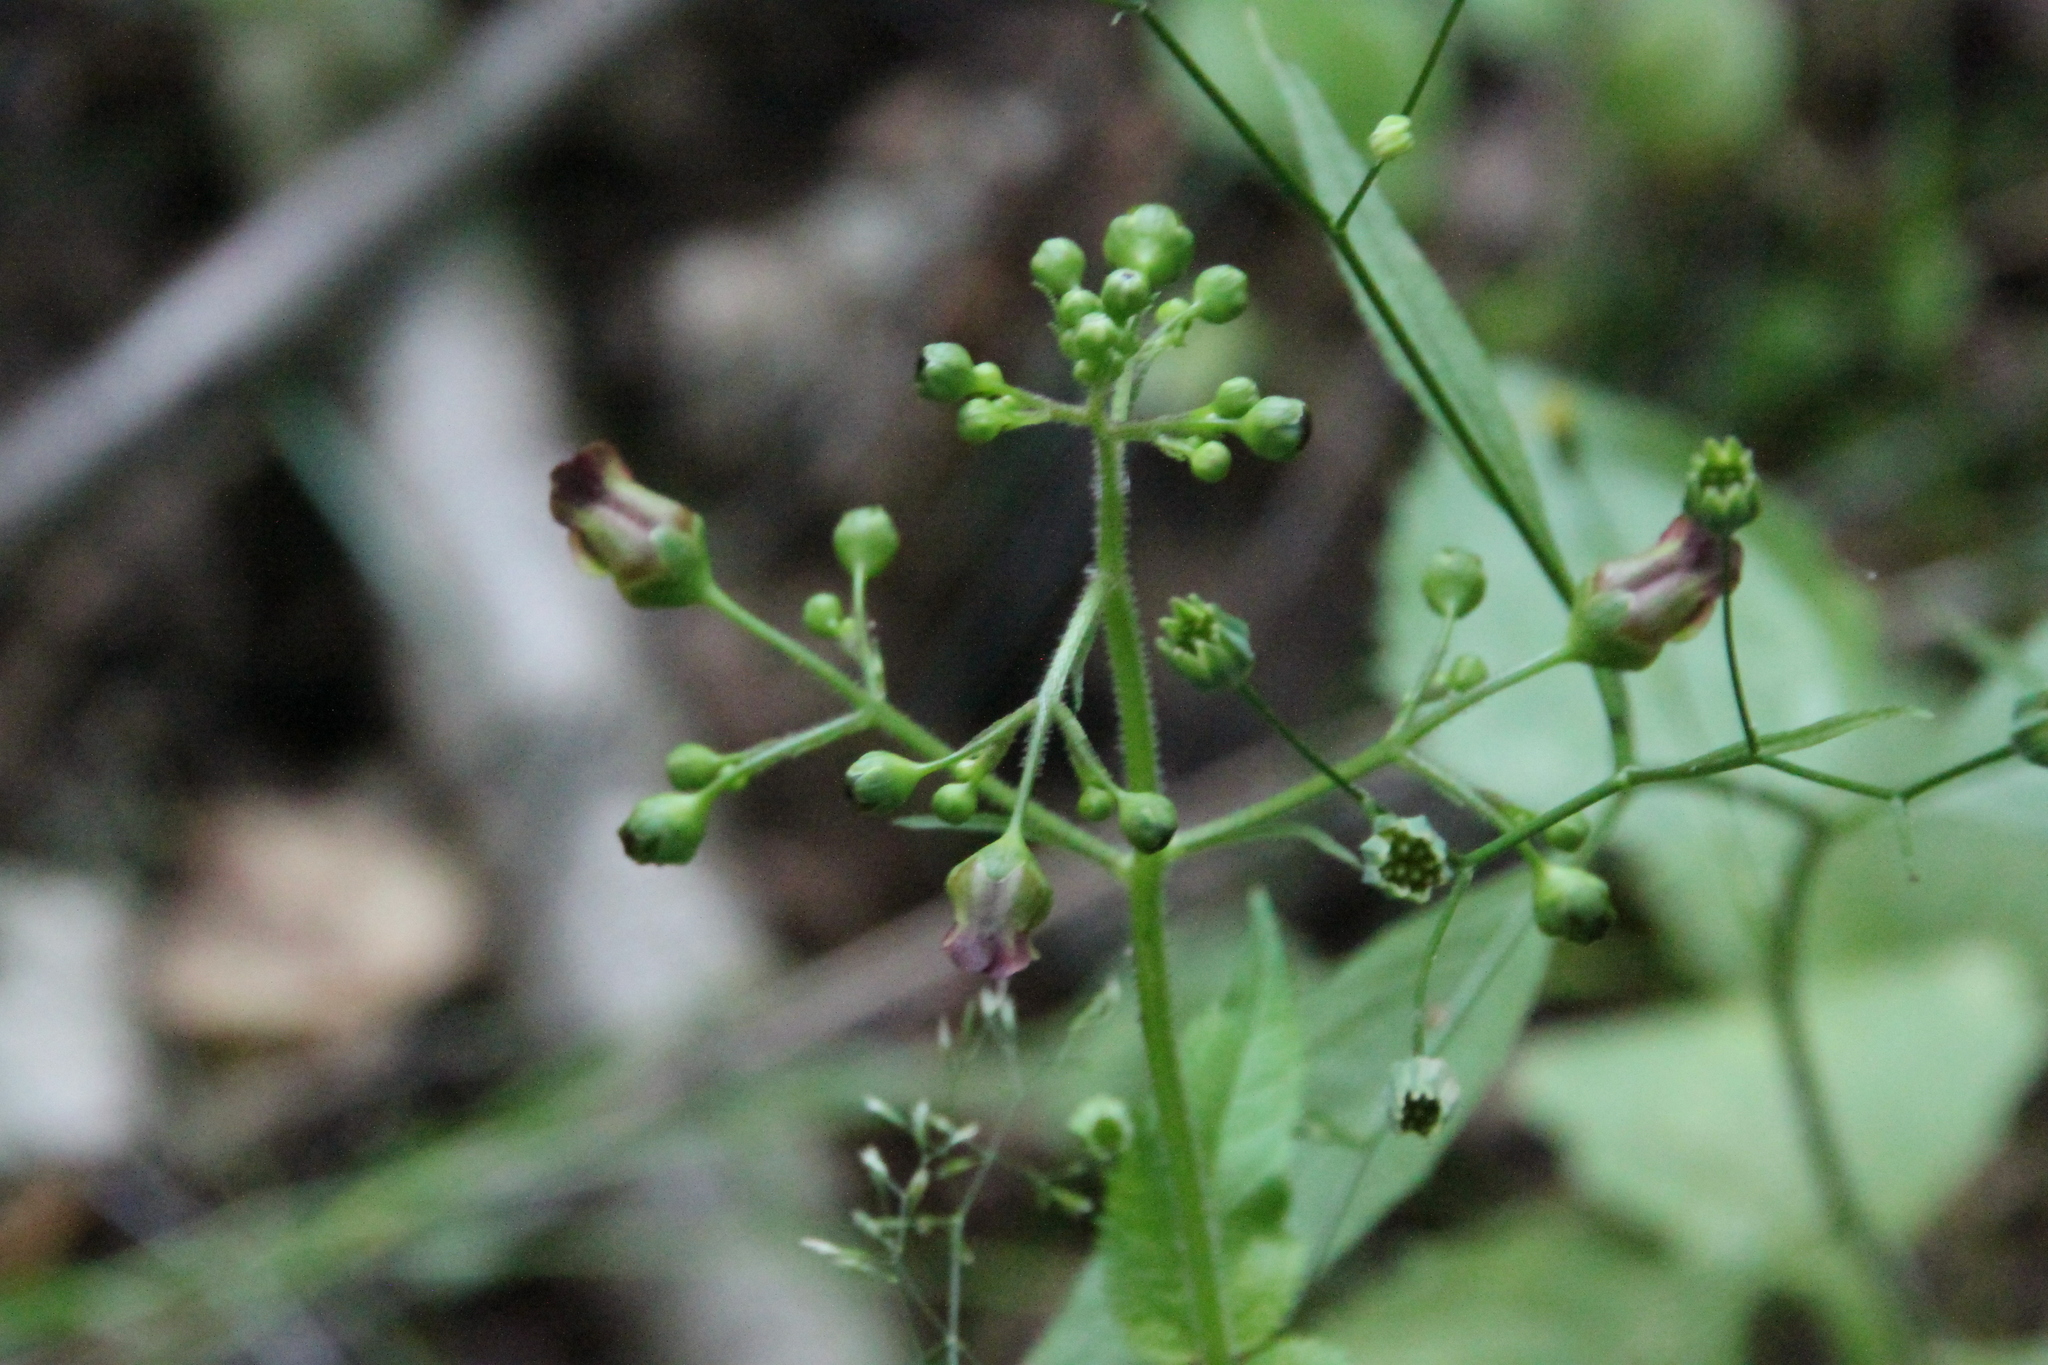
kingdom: Plantae
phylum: Tracheophyta
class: Magnoliopsida
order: Lamiales
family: Scrophulariaceae
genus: Scrophularia
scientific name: Scrophularia nodosa
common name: Common figwort
